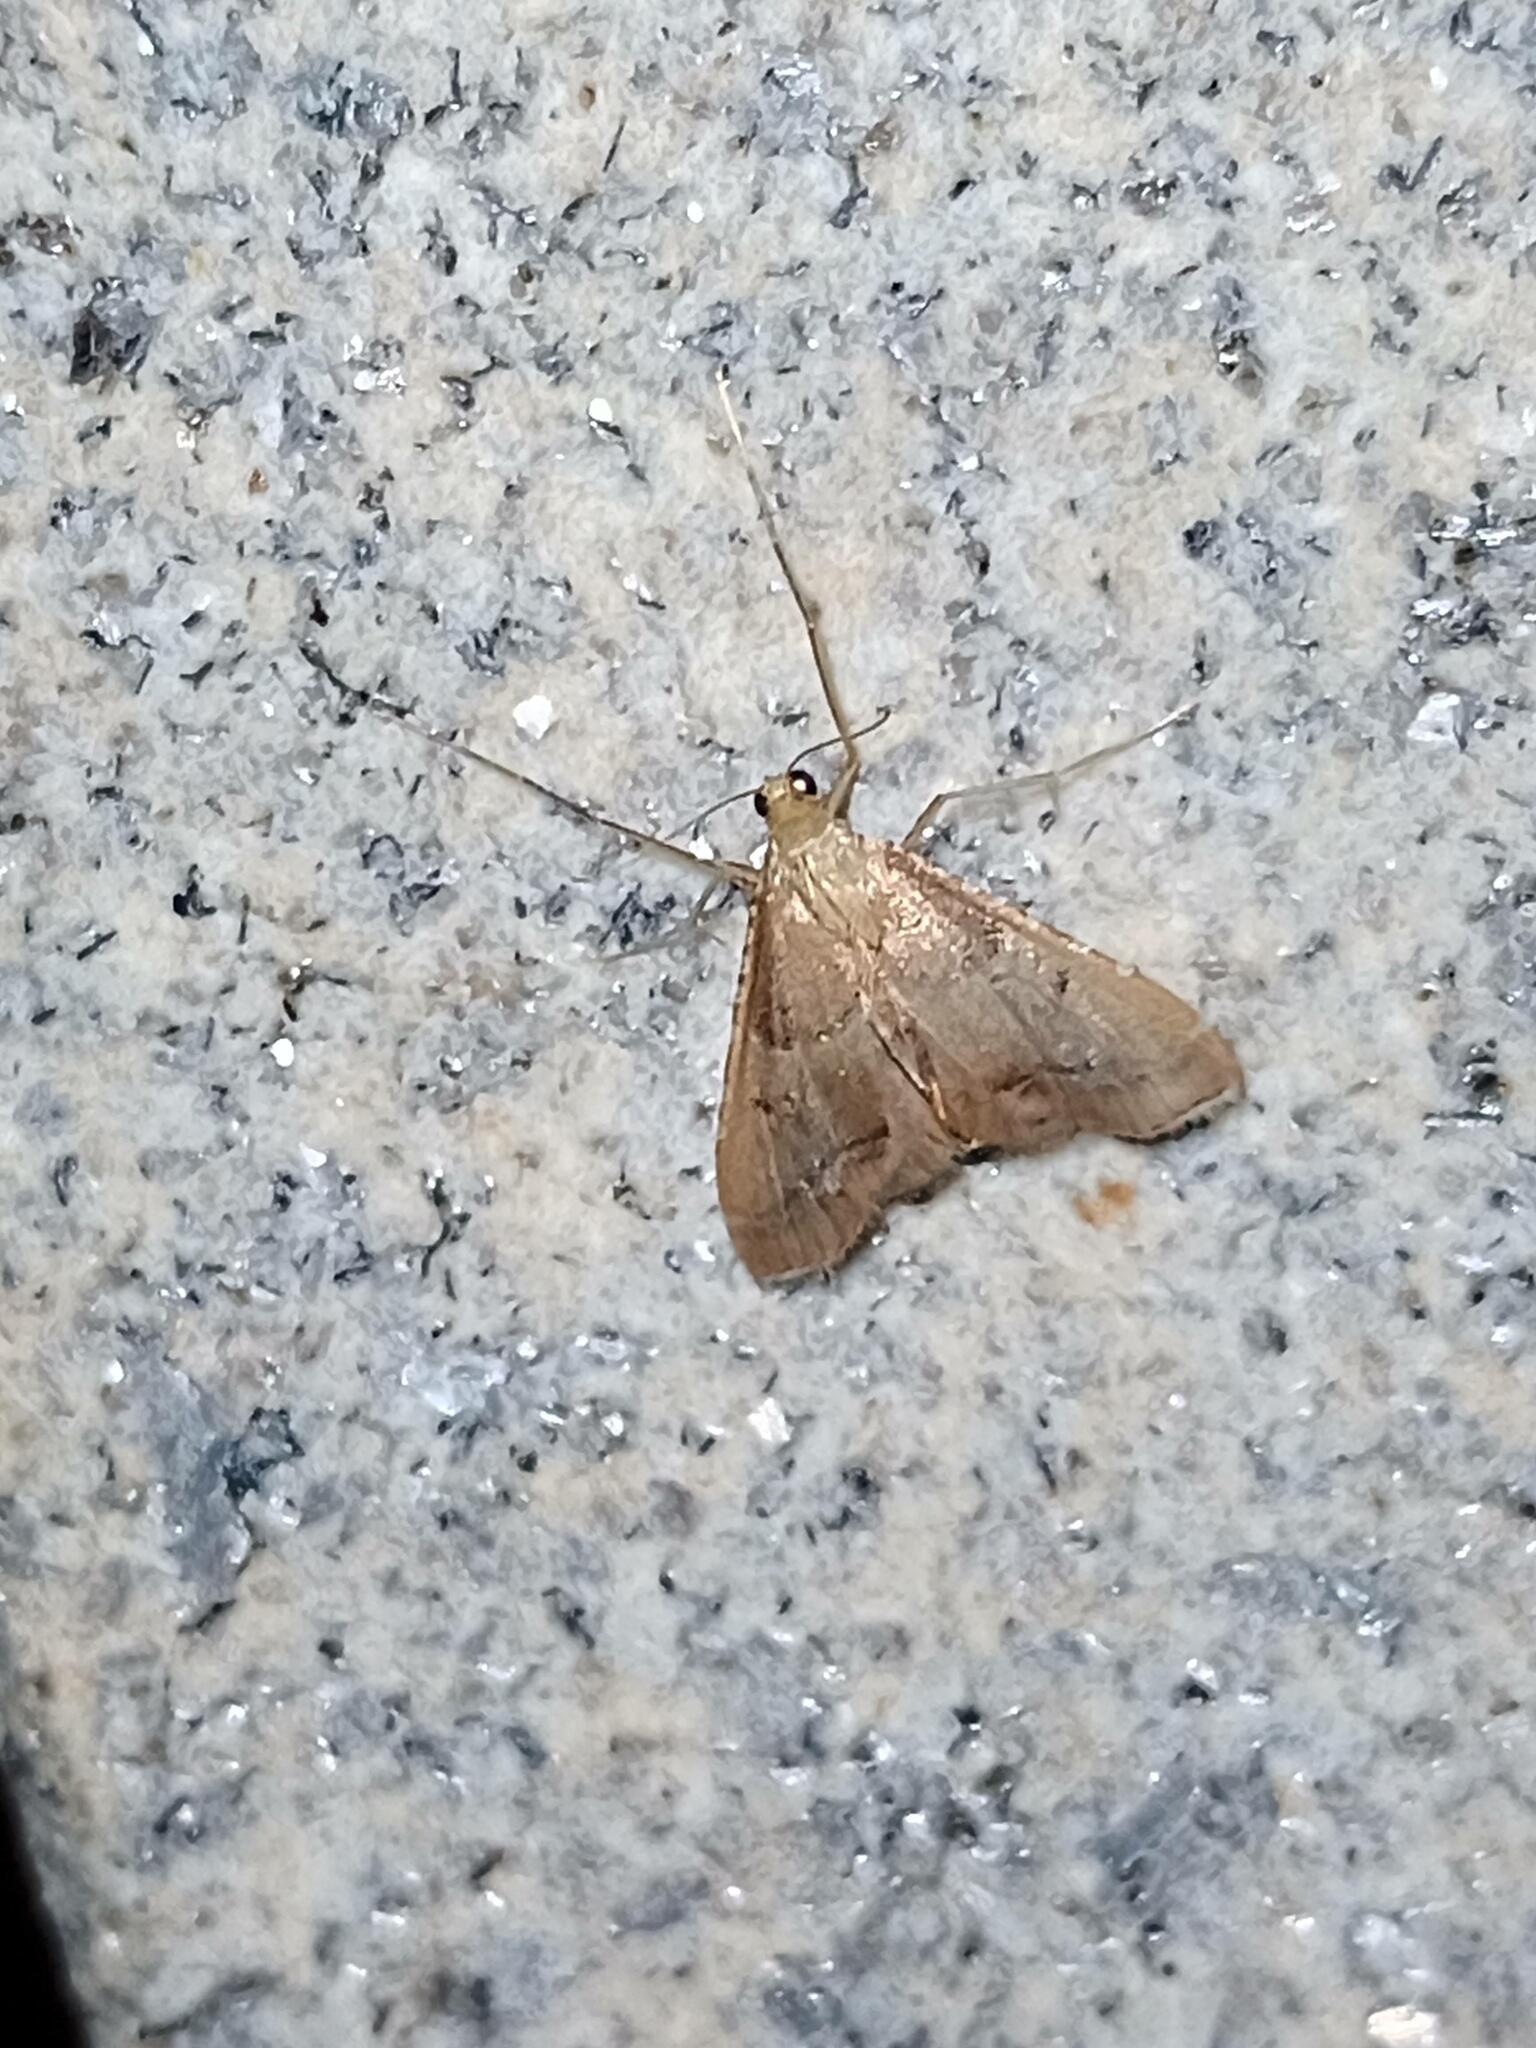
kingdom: Animalia
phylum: Arthropoda
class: Insecta
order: Lepidoptera
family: Pyralidae
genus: Endotricha
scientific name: Endotricha flammealis
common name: Rosy tabby
